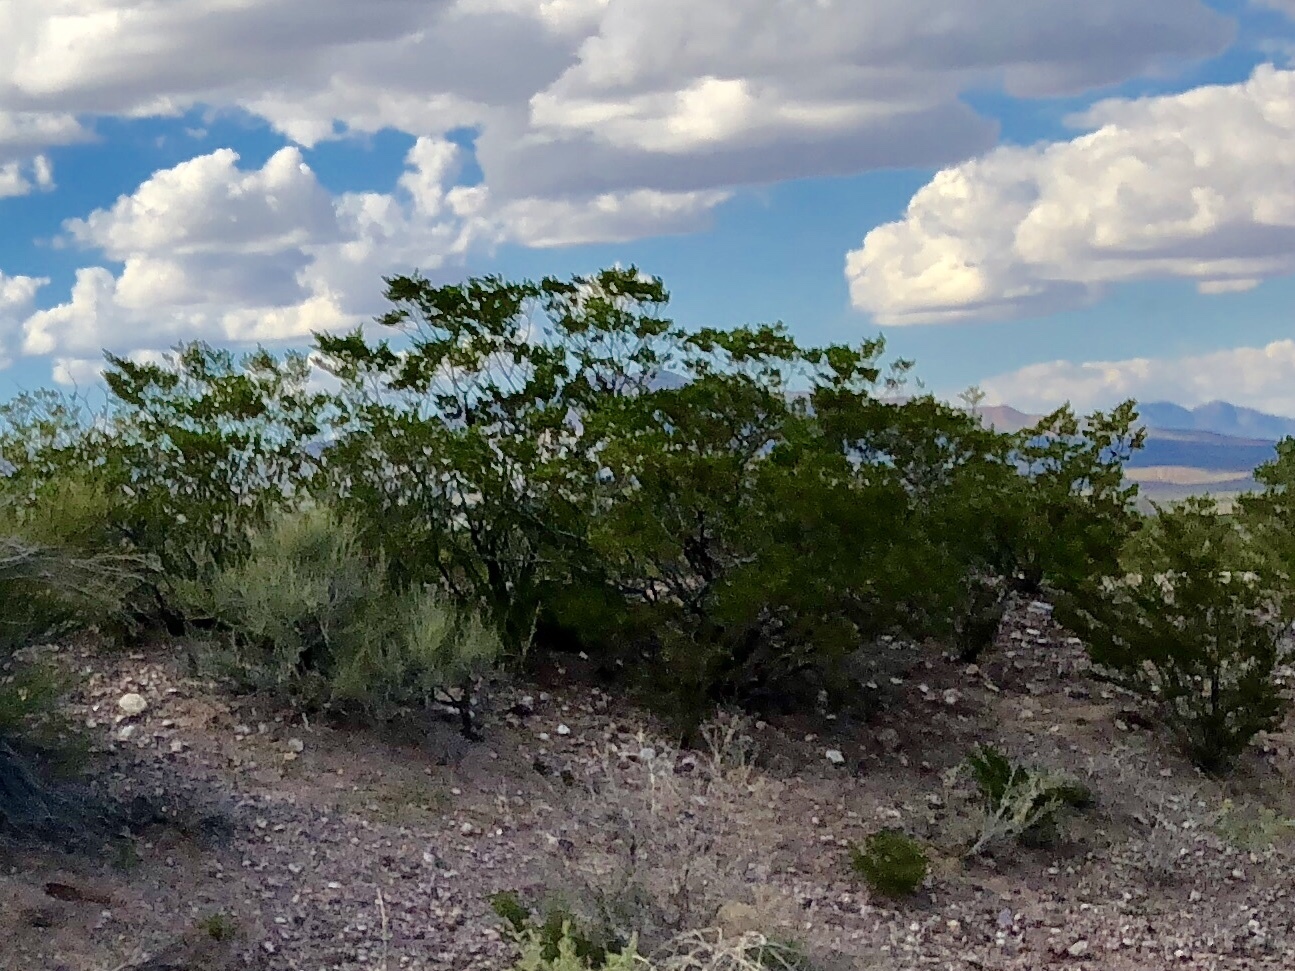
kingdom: Plantae
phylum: Tracheophyta
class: Magnoliopsida
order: Zygophyllales
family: Zygophyllaceae
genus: Larrea
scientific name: Larrea tridentata
